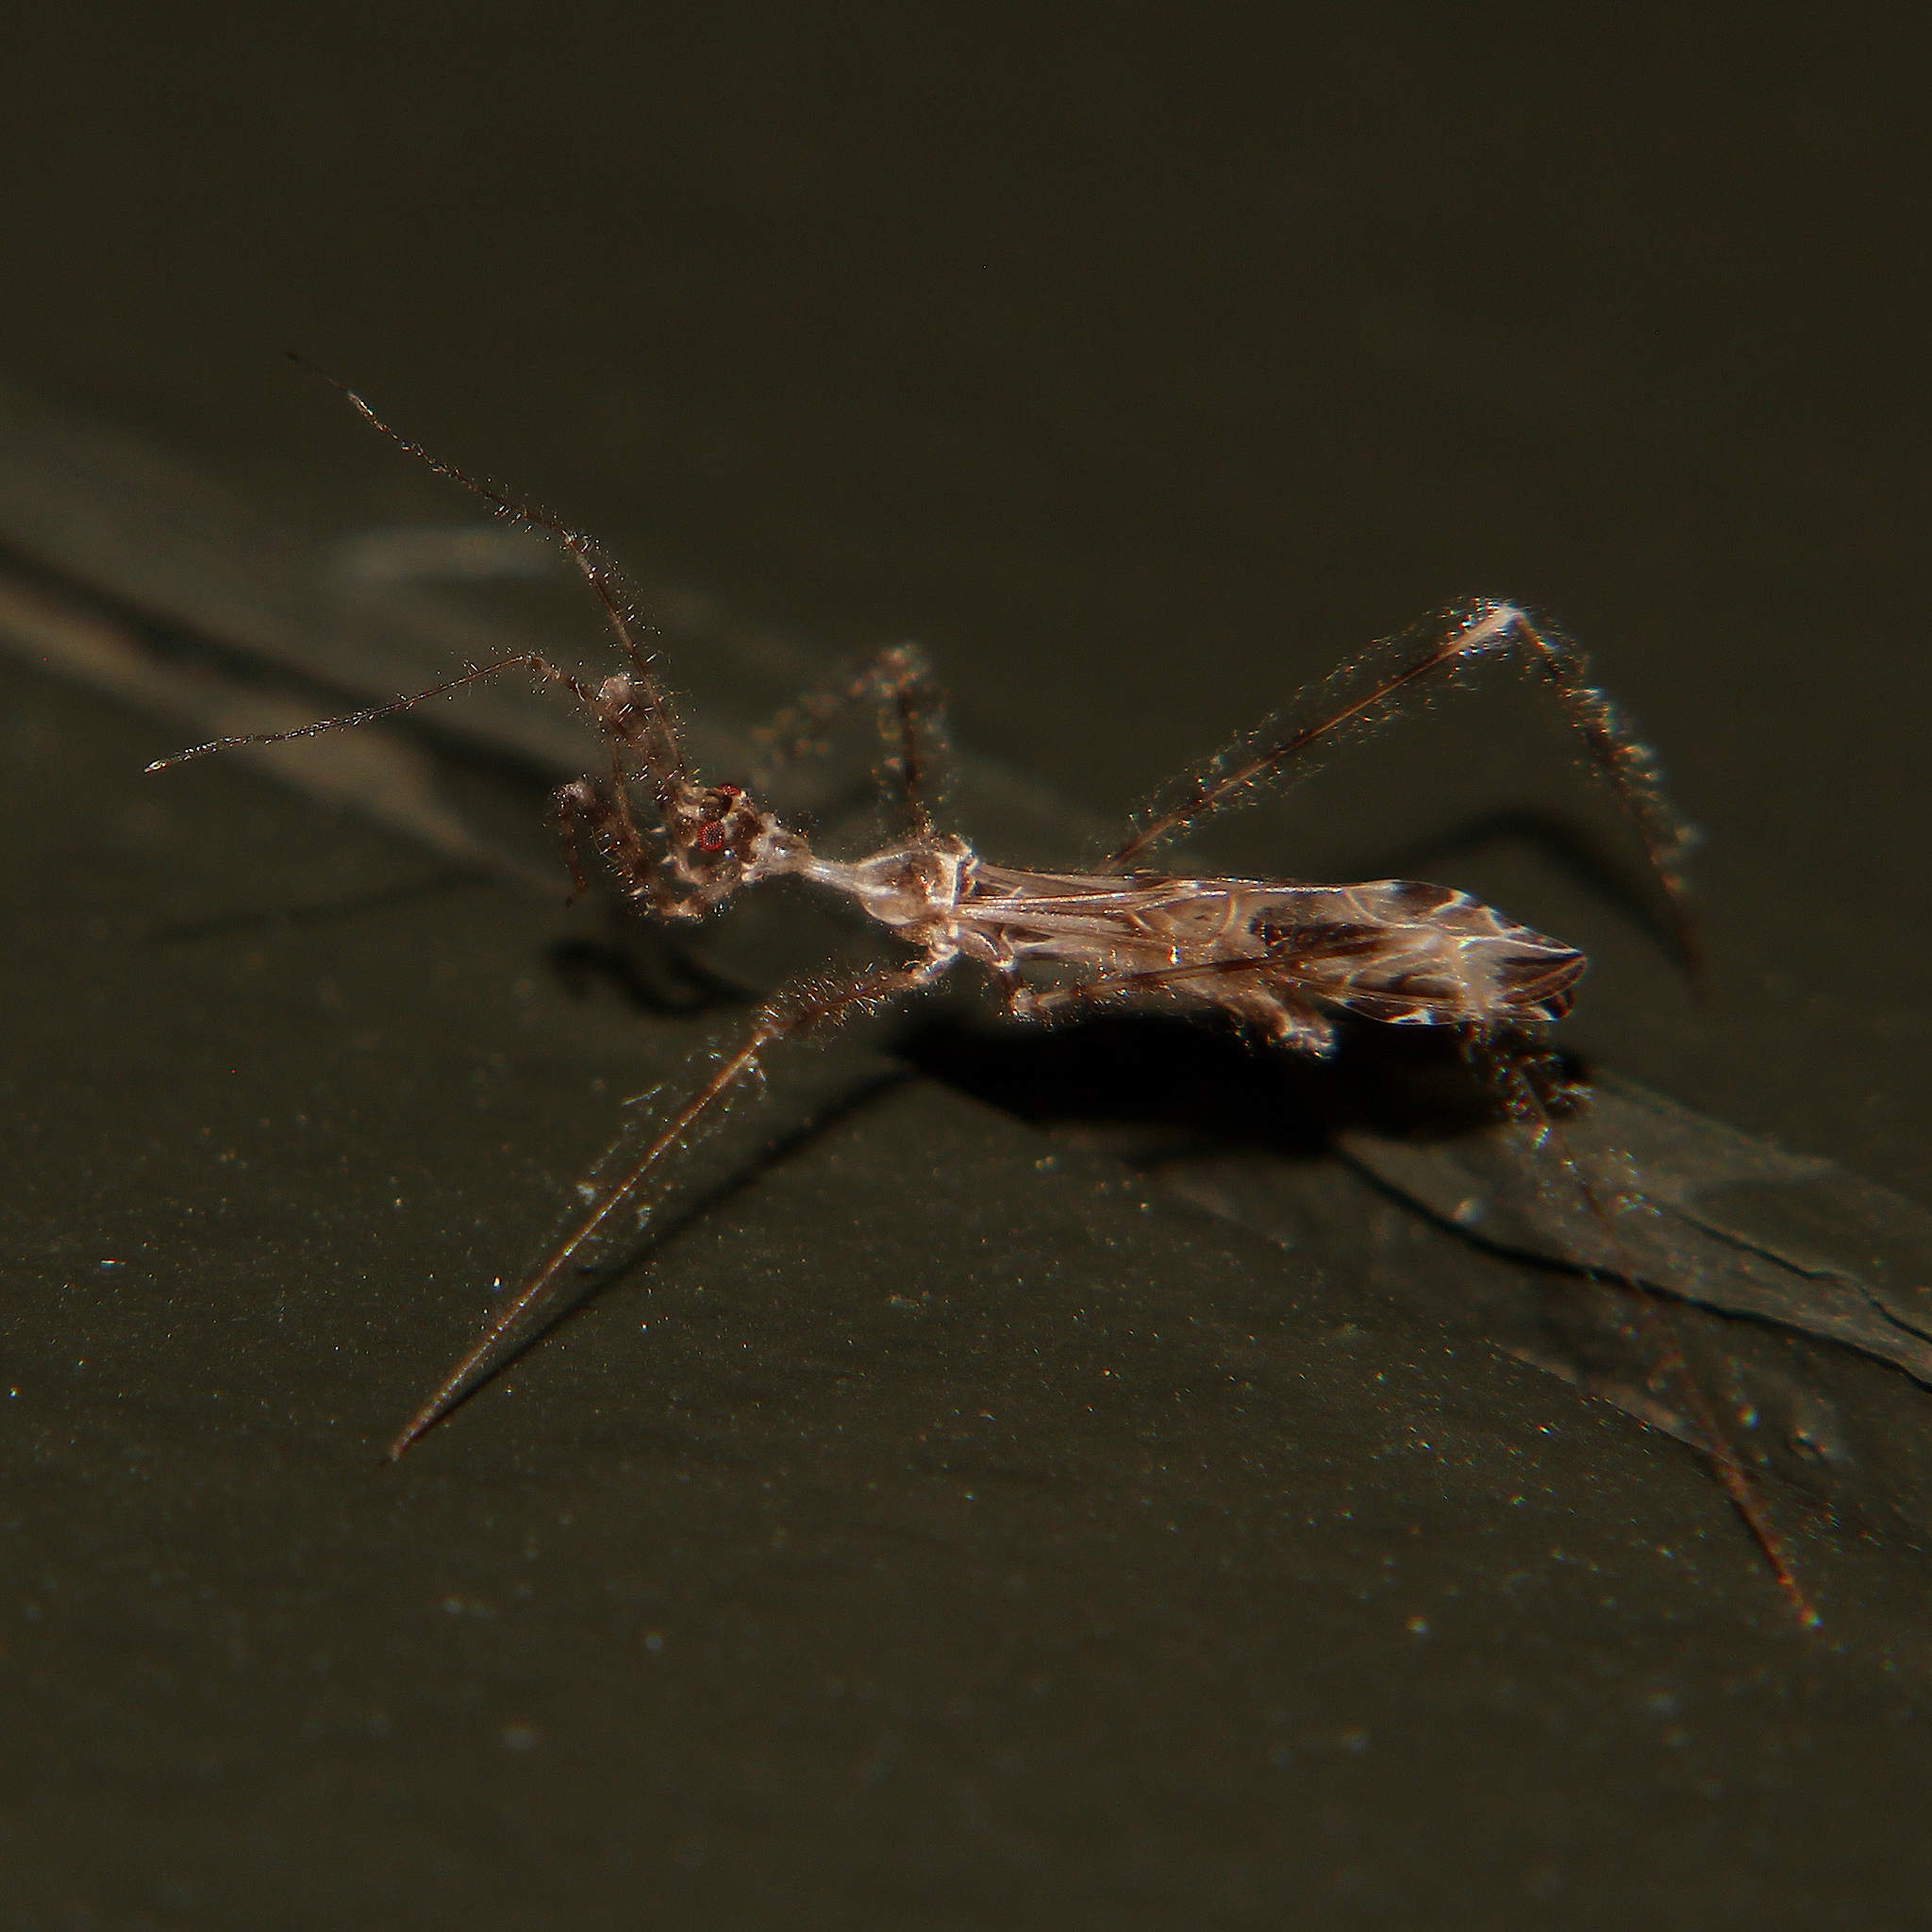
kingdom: Animalia
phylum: Arthropoda
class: Insecta
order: Hemiptera
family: Reduviidae
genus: Stenolemus
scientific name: Stenolemus fraterculus
